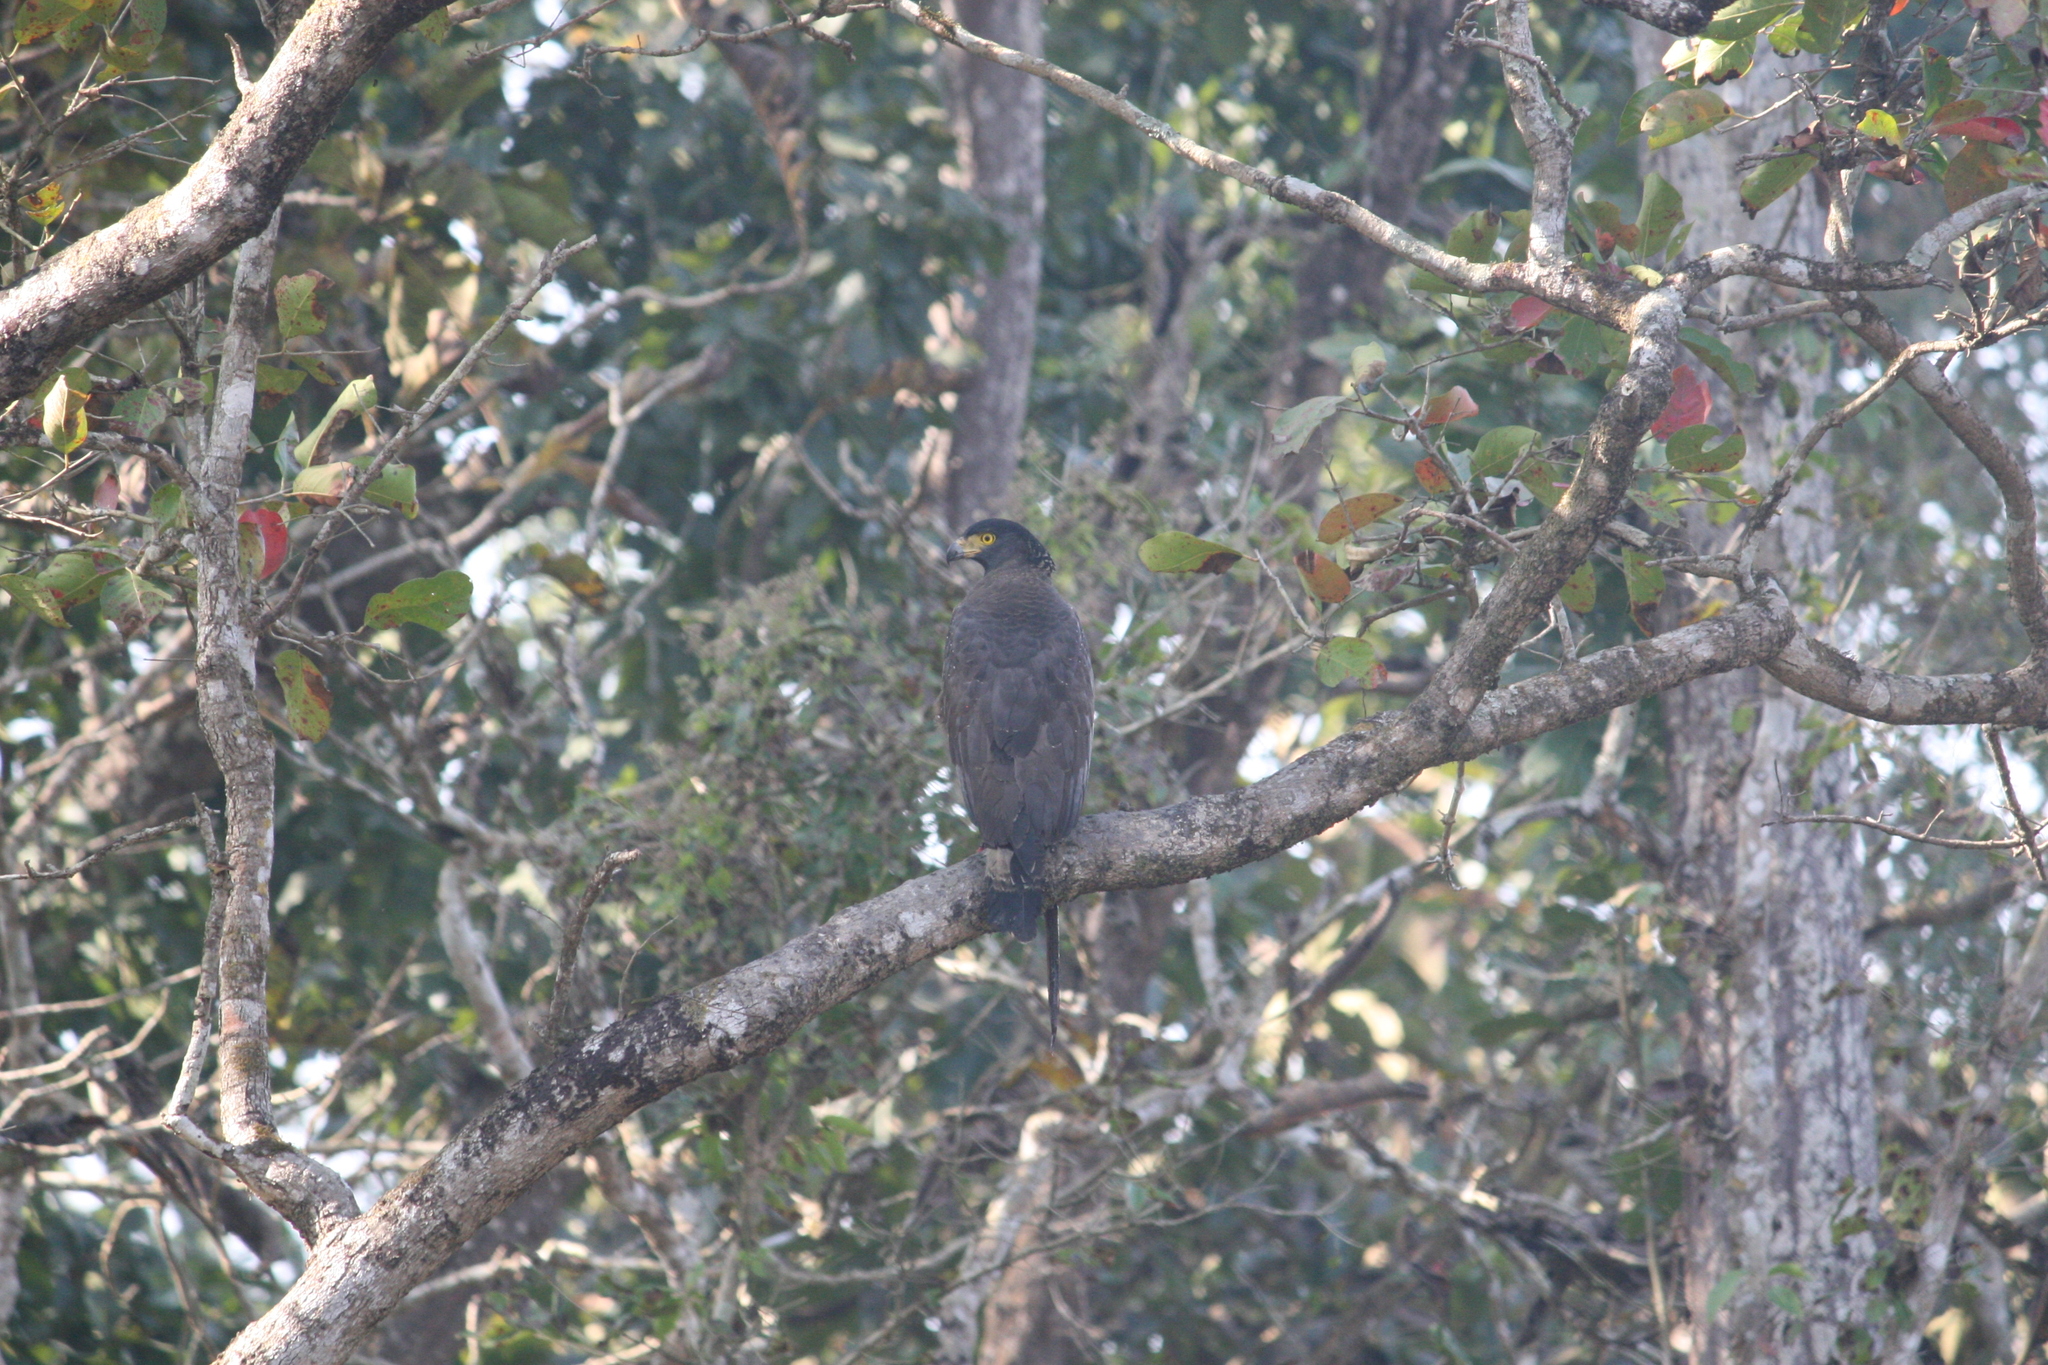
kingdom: Animalia
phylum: Chordata
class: Aves
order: Accipitriformes
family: Accipitridae
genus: Spilornis
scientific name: Spilornis cheela
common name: Crested serpent eagle
